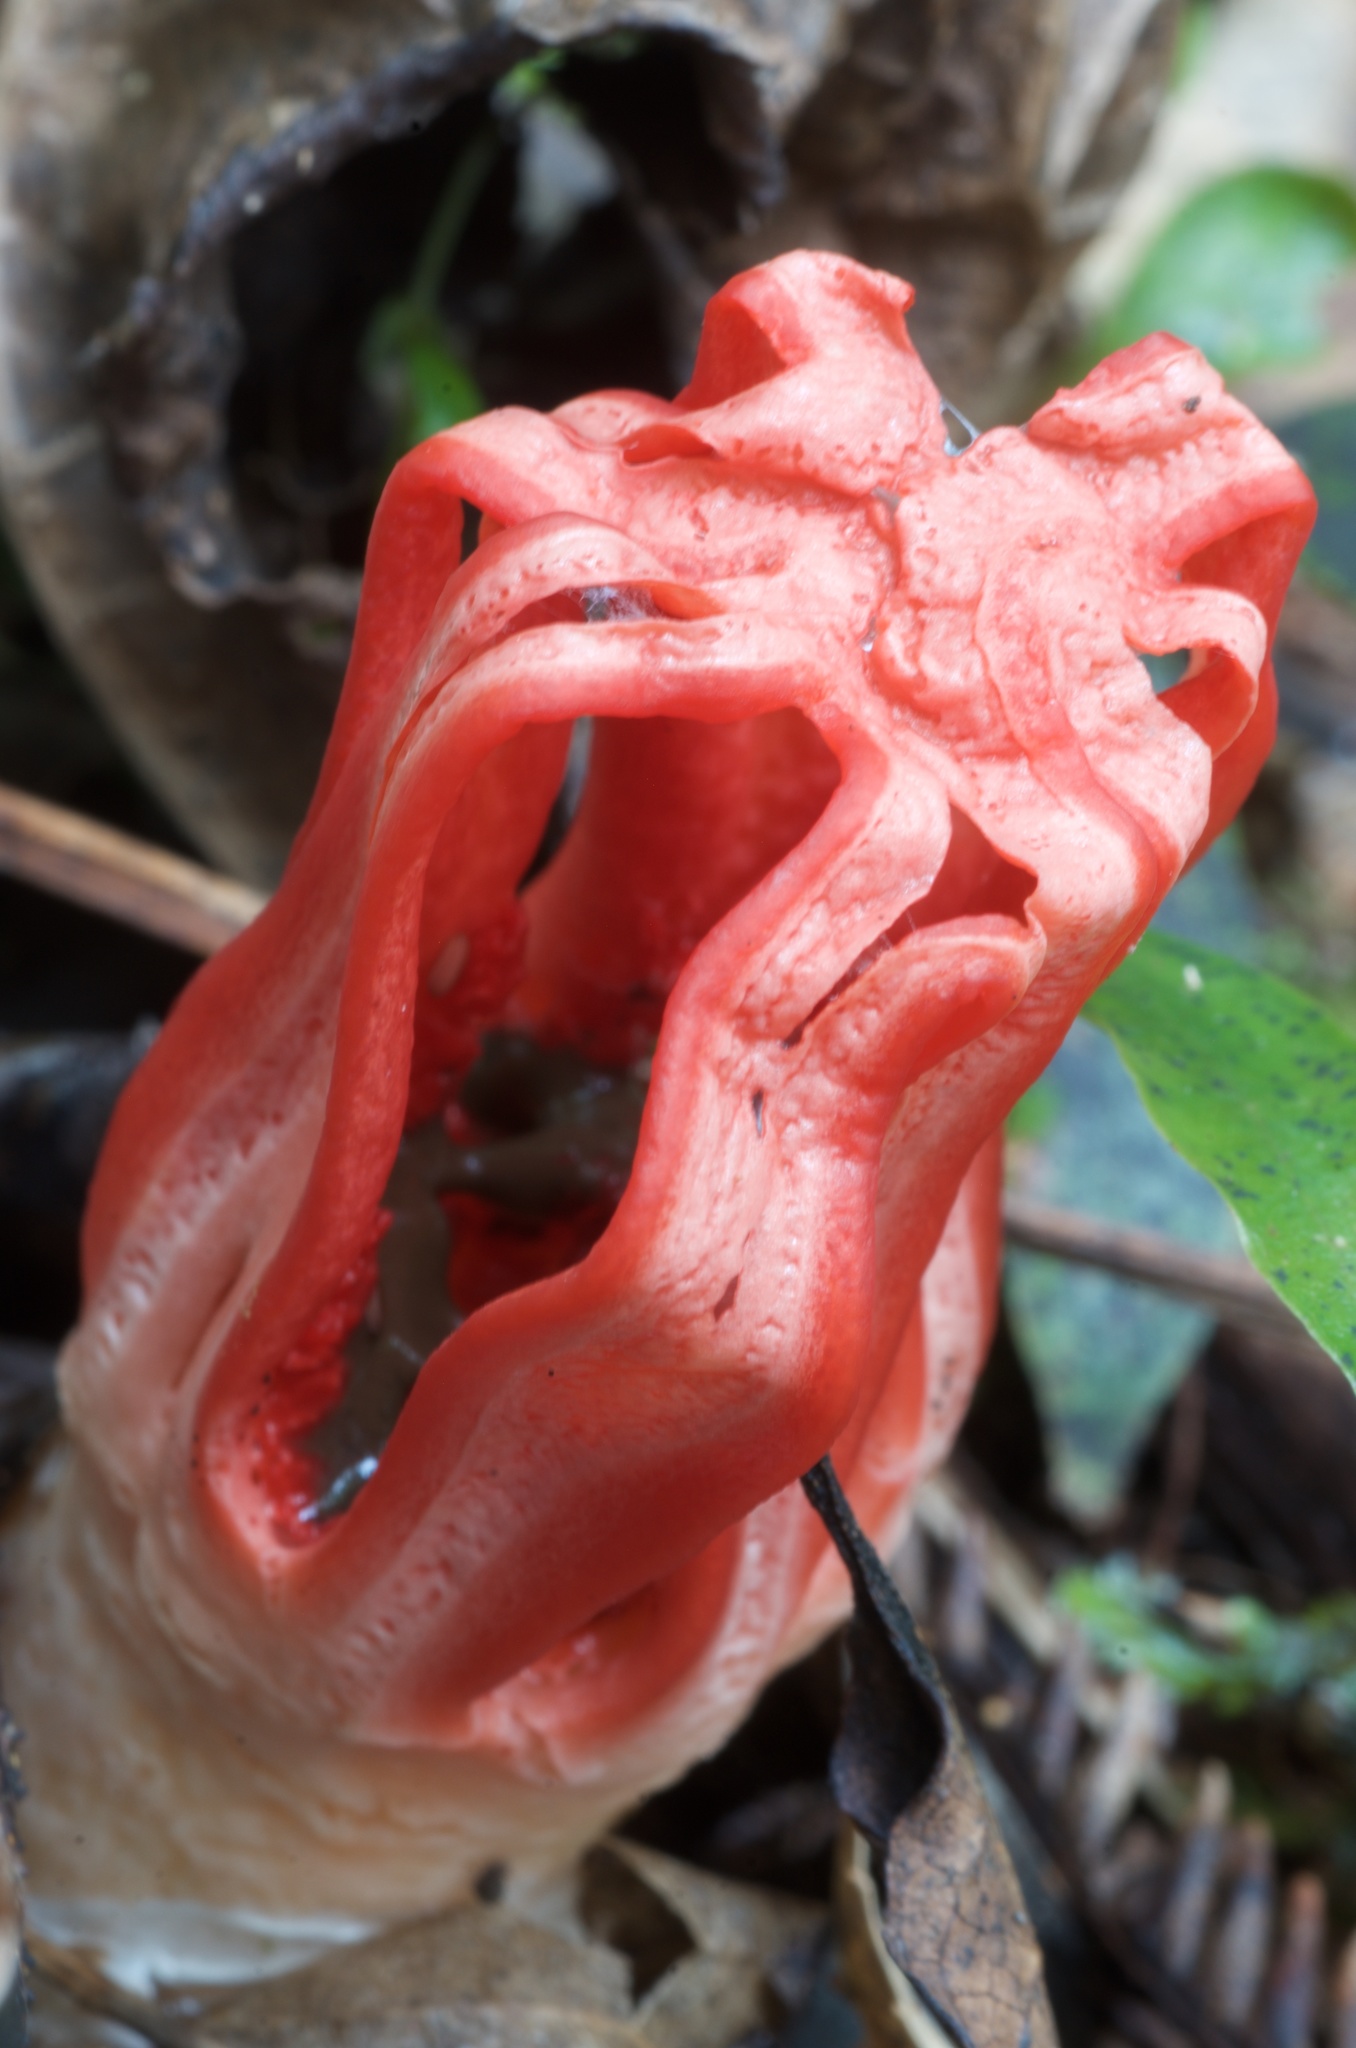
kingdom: Fungi
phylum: Basidiomycota
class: Agaricomycetes
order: Phallales
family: Phallaceae
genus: Aseroe
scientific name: Aseroe rubra
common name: Starfish fungus
